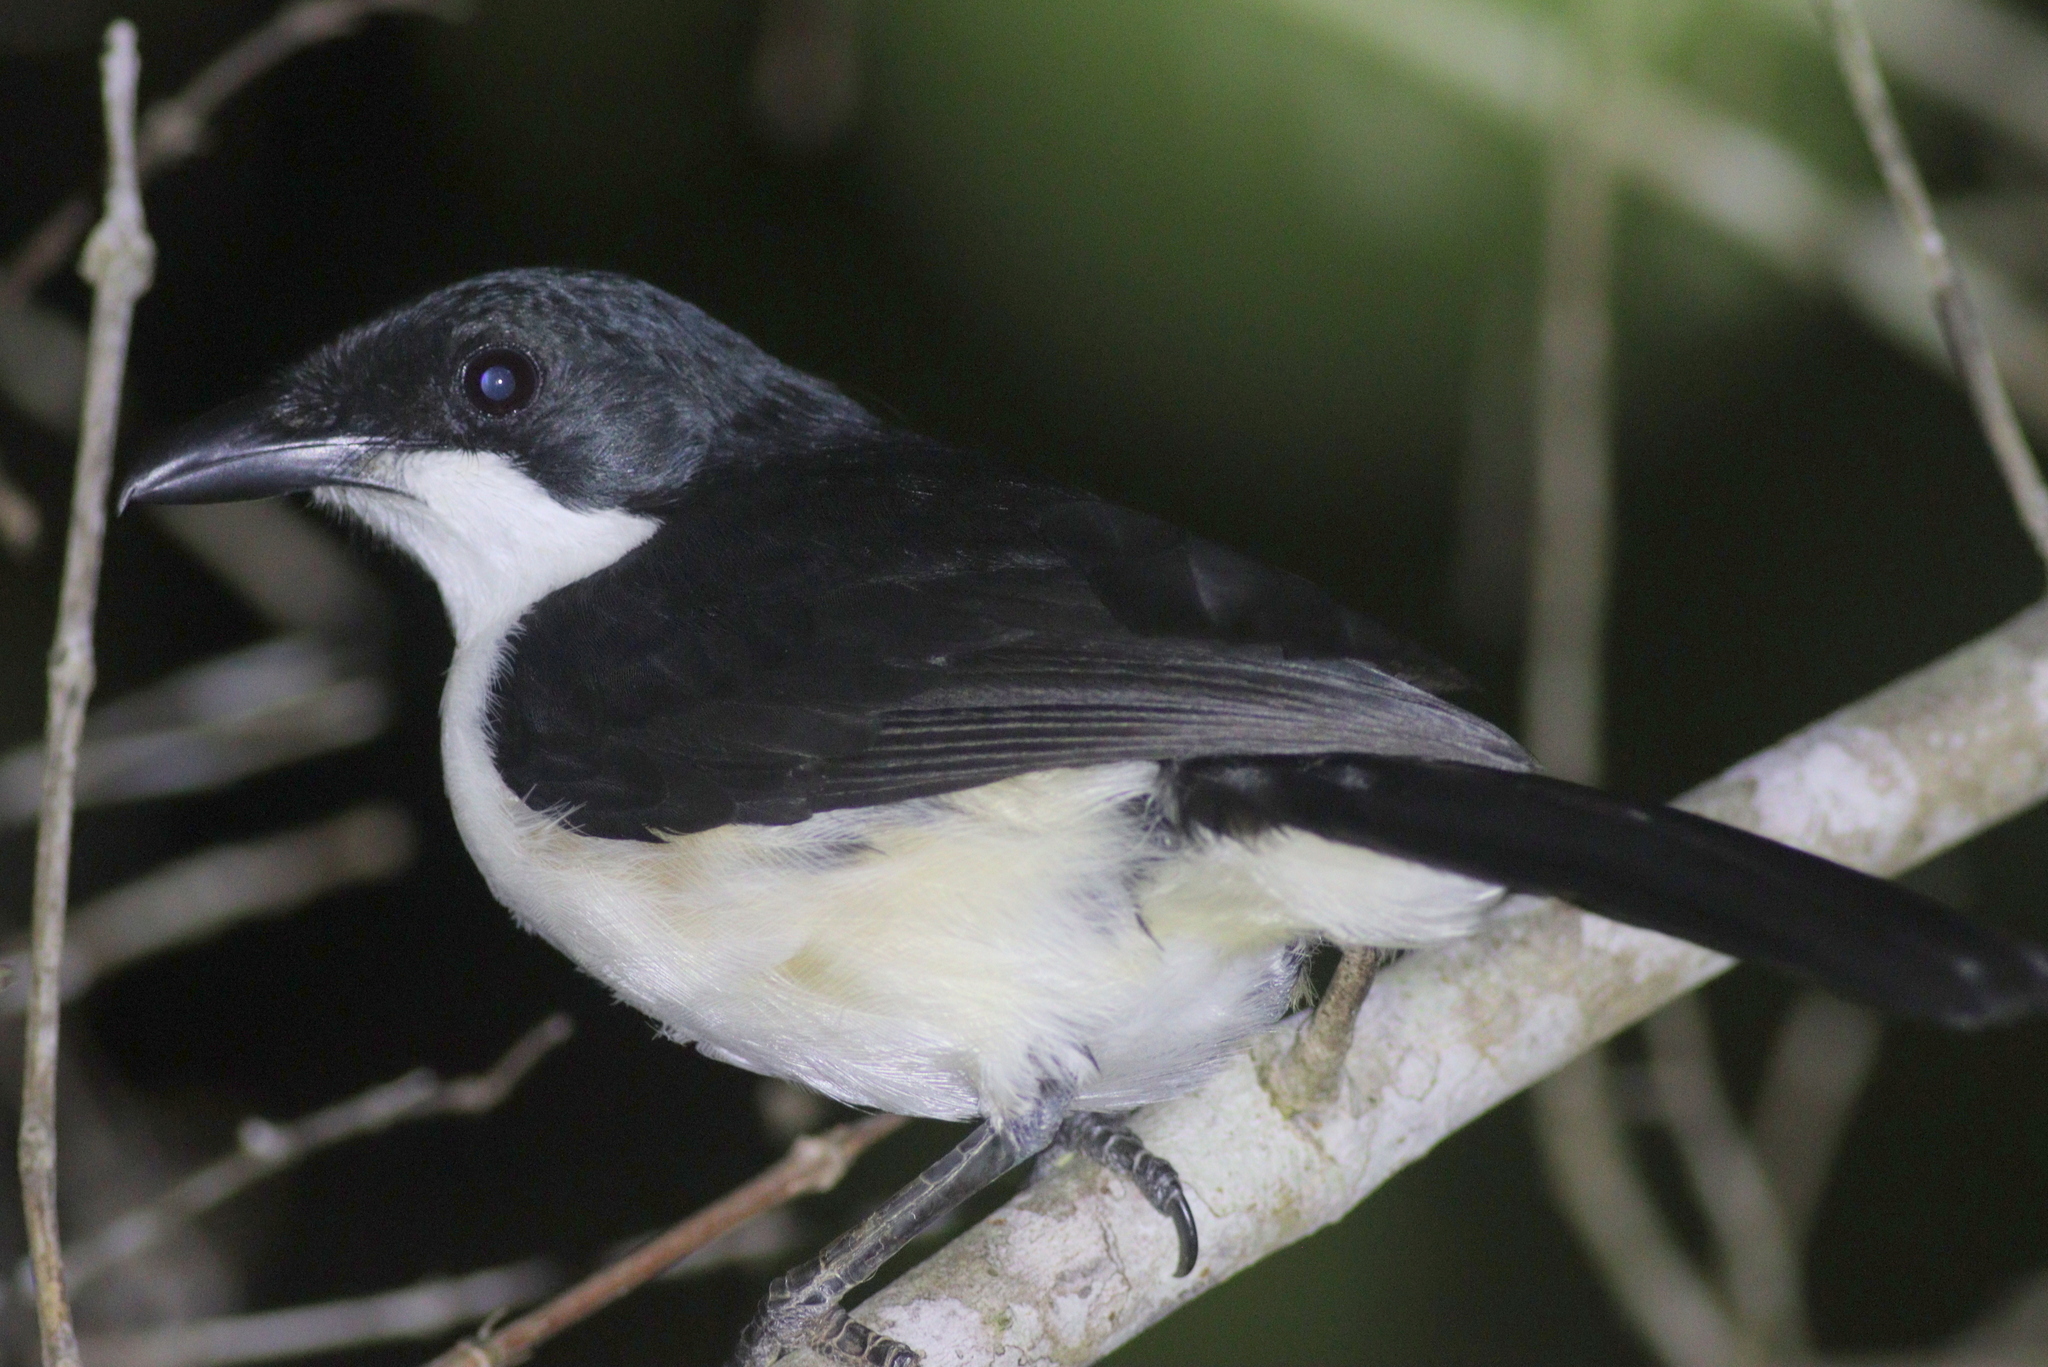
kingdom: Animalia
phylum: Chordata
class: Aves
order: Passeriformes
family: Malaconotidae
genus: Laniarius
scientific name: Laniarius sublacteus
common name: East coast boubou
